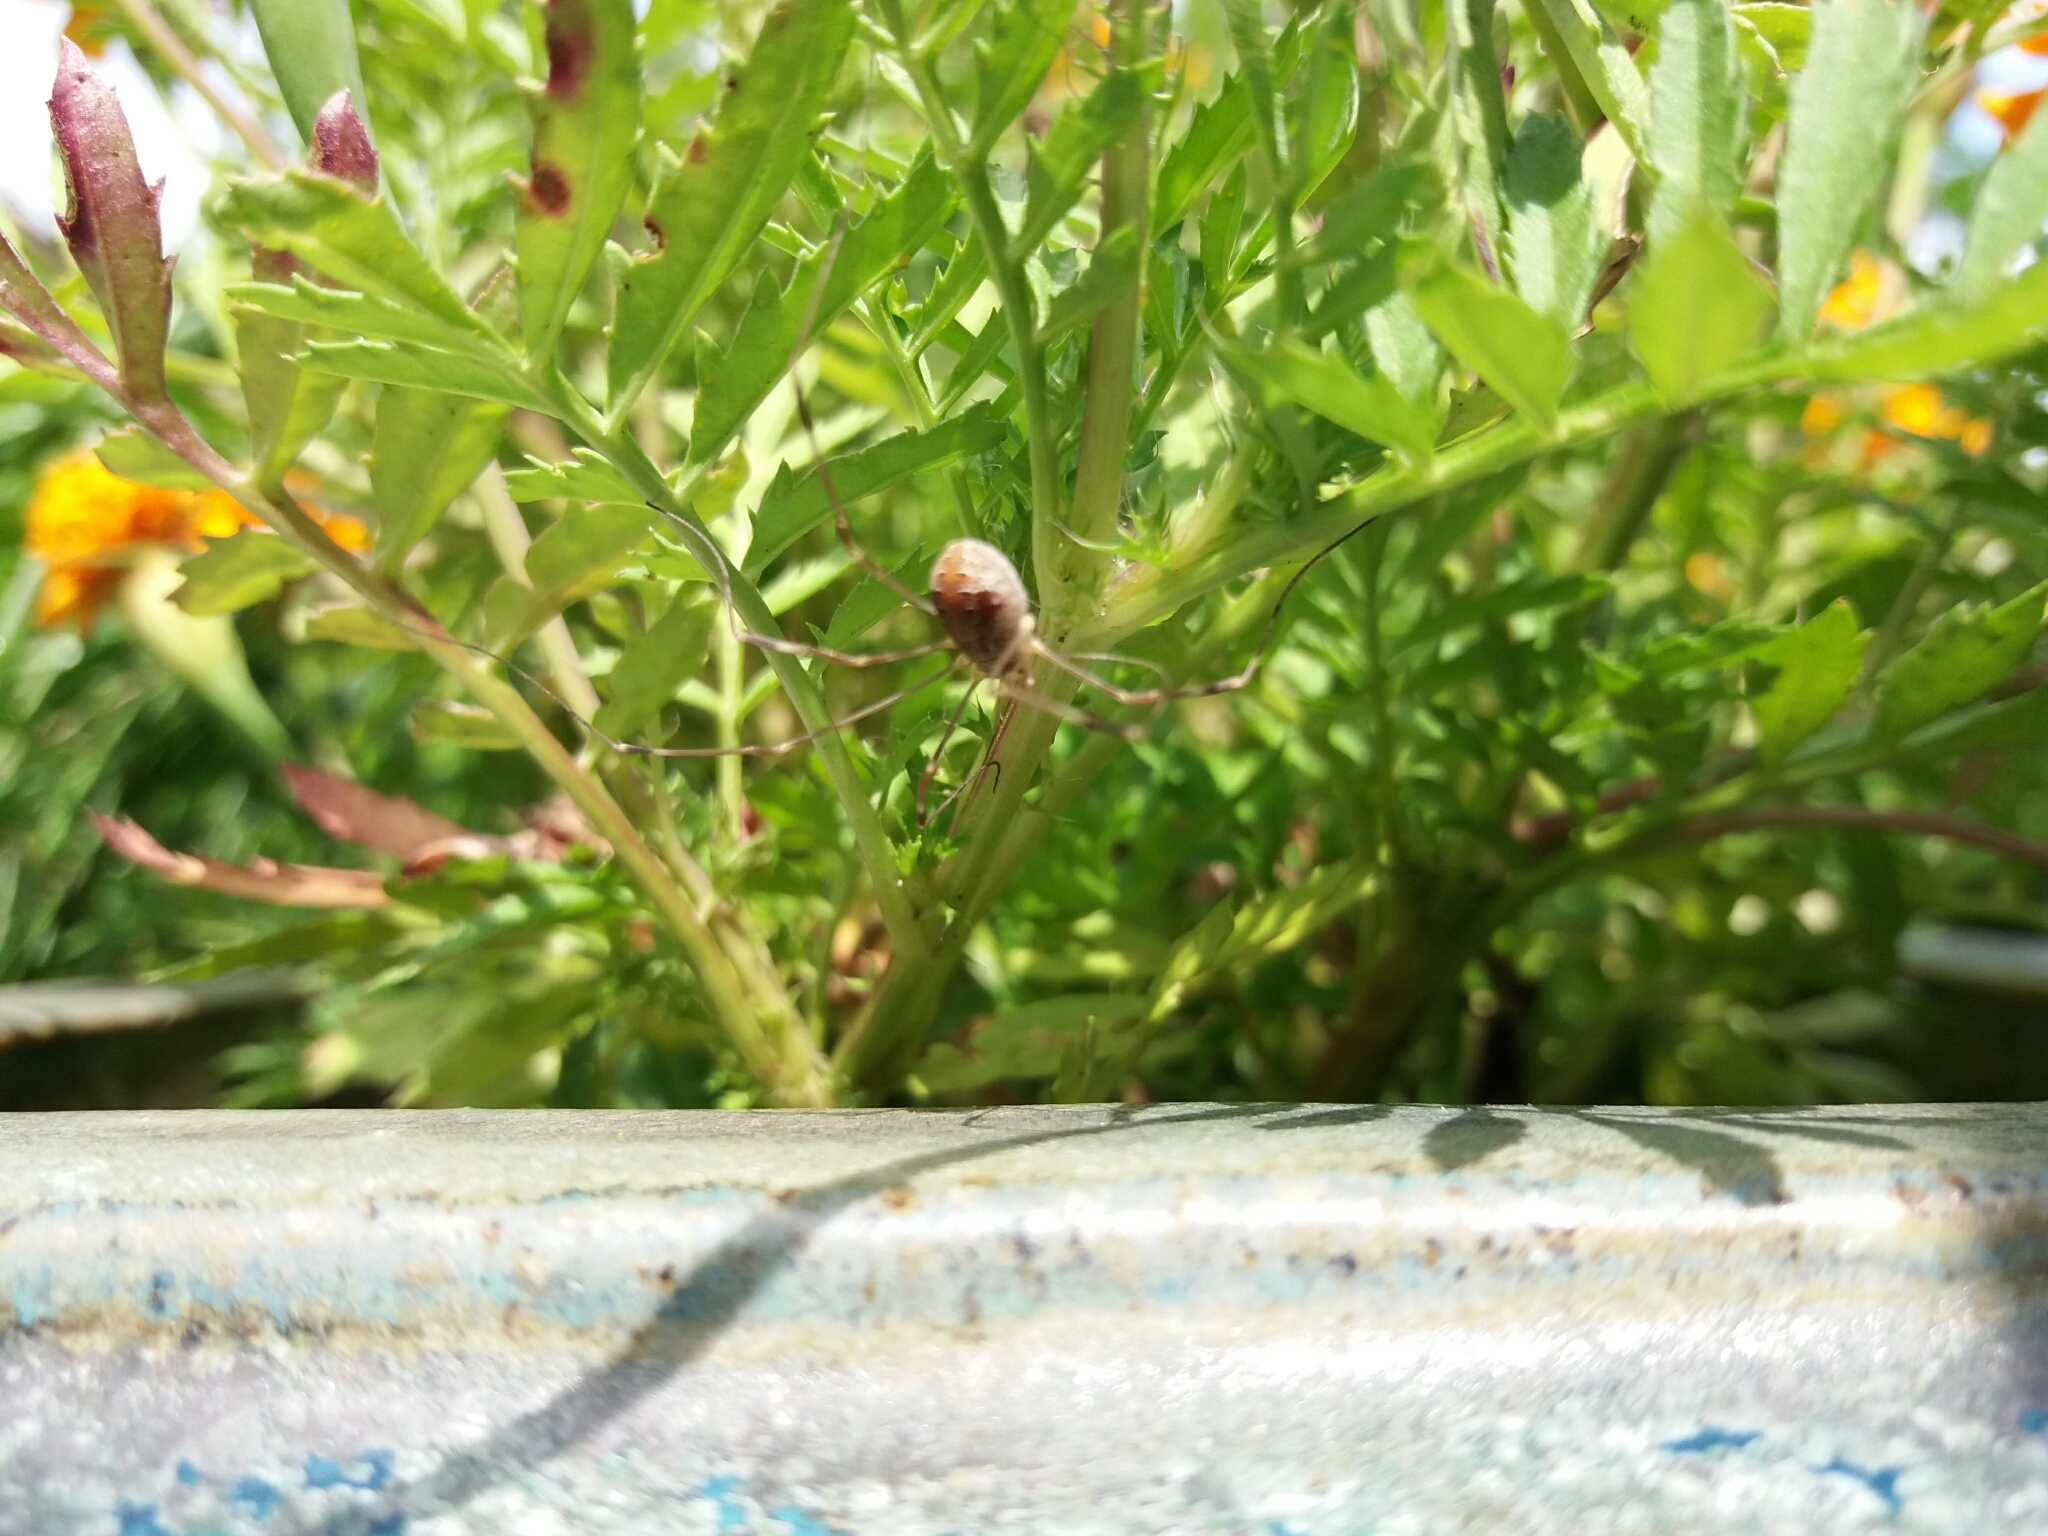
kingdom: Animalia
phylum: Arthropoda
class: Arachnida
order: Opiliones
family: Phalangiidae
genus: Opilio
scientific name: Opilio canestrinii
